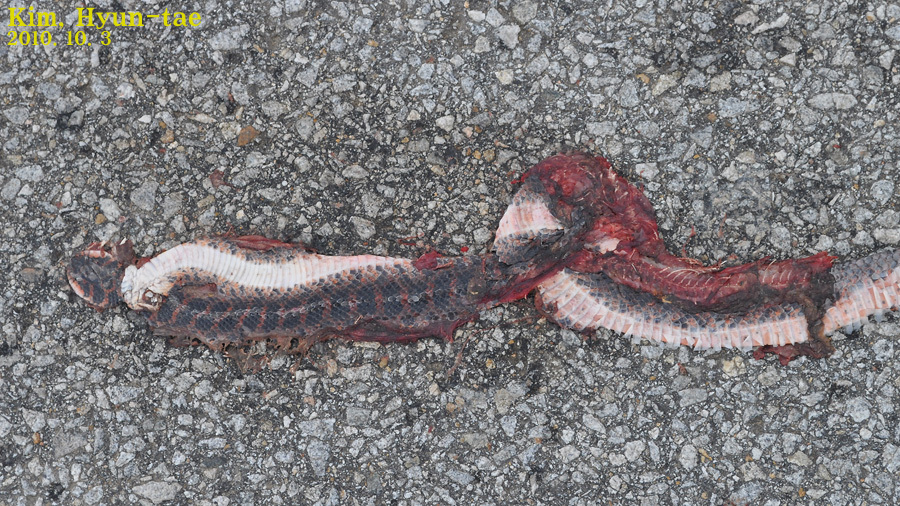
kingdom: Animalia
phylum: Chordata
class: Squamata
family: Colubridae
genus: Lycodon
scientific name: Lycodon rufozonatus
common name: Red-banded snake
